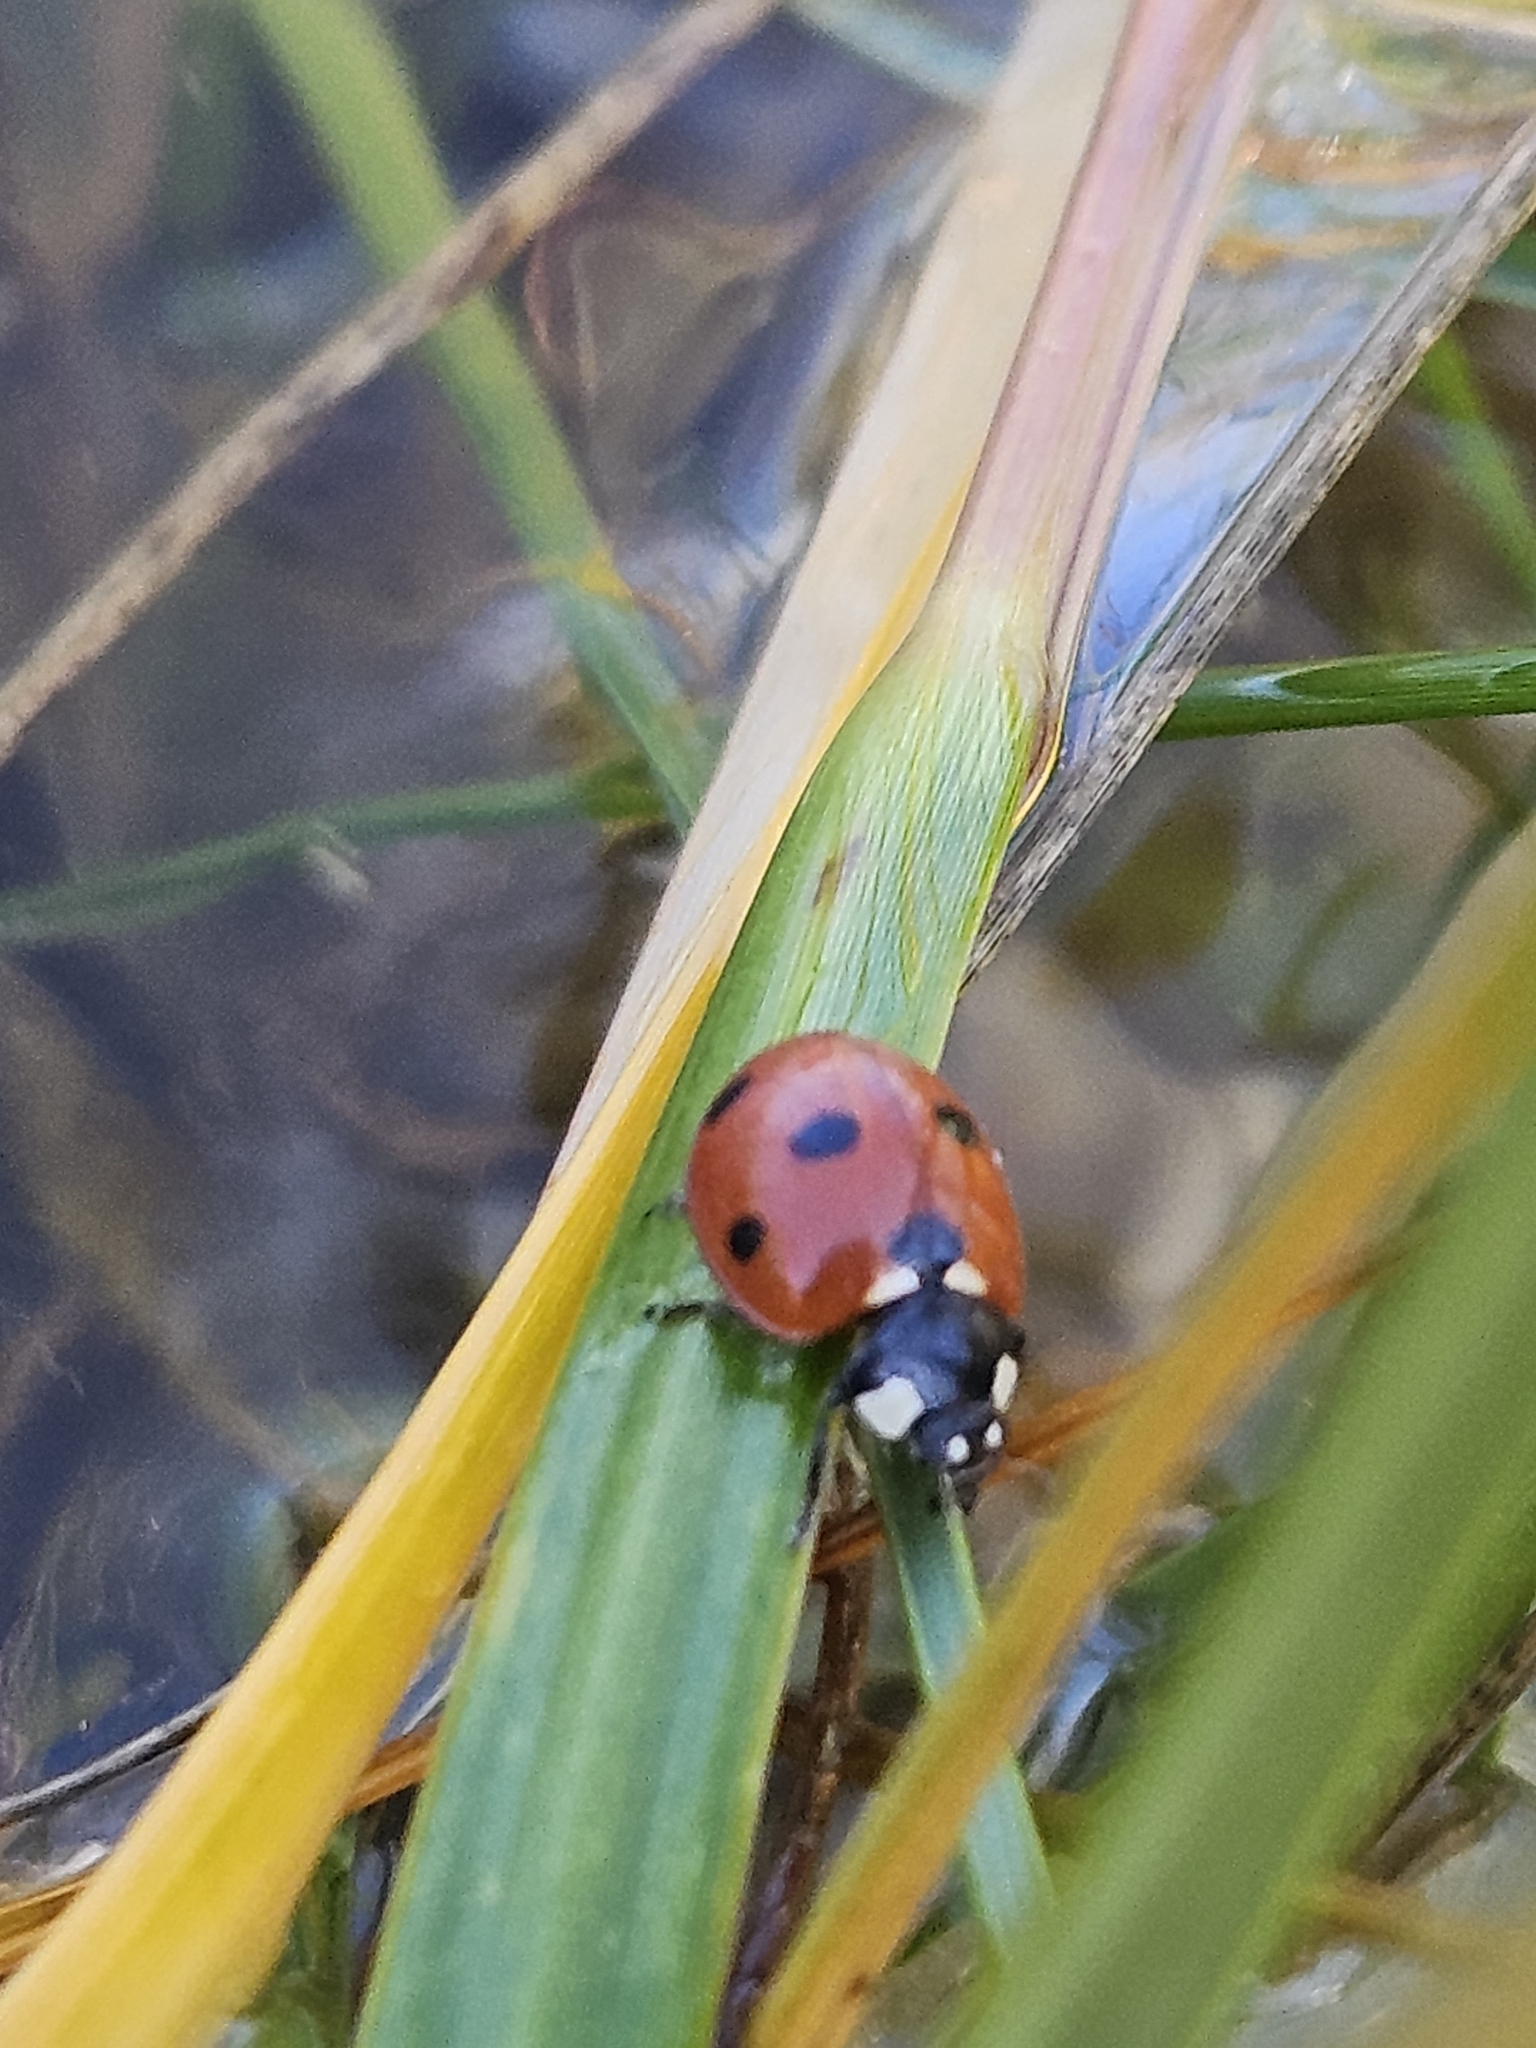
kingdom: Animalia
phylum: Arthropoda
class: Insecta
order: Coleoptera
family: Coccinellidae
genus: Coccinella
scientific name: Coccinella septempunctata
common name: Sevenspotted lady beetle
